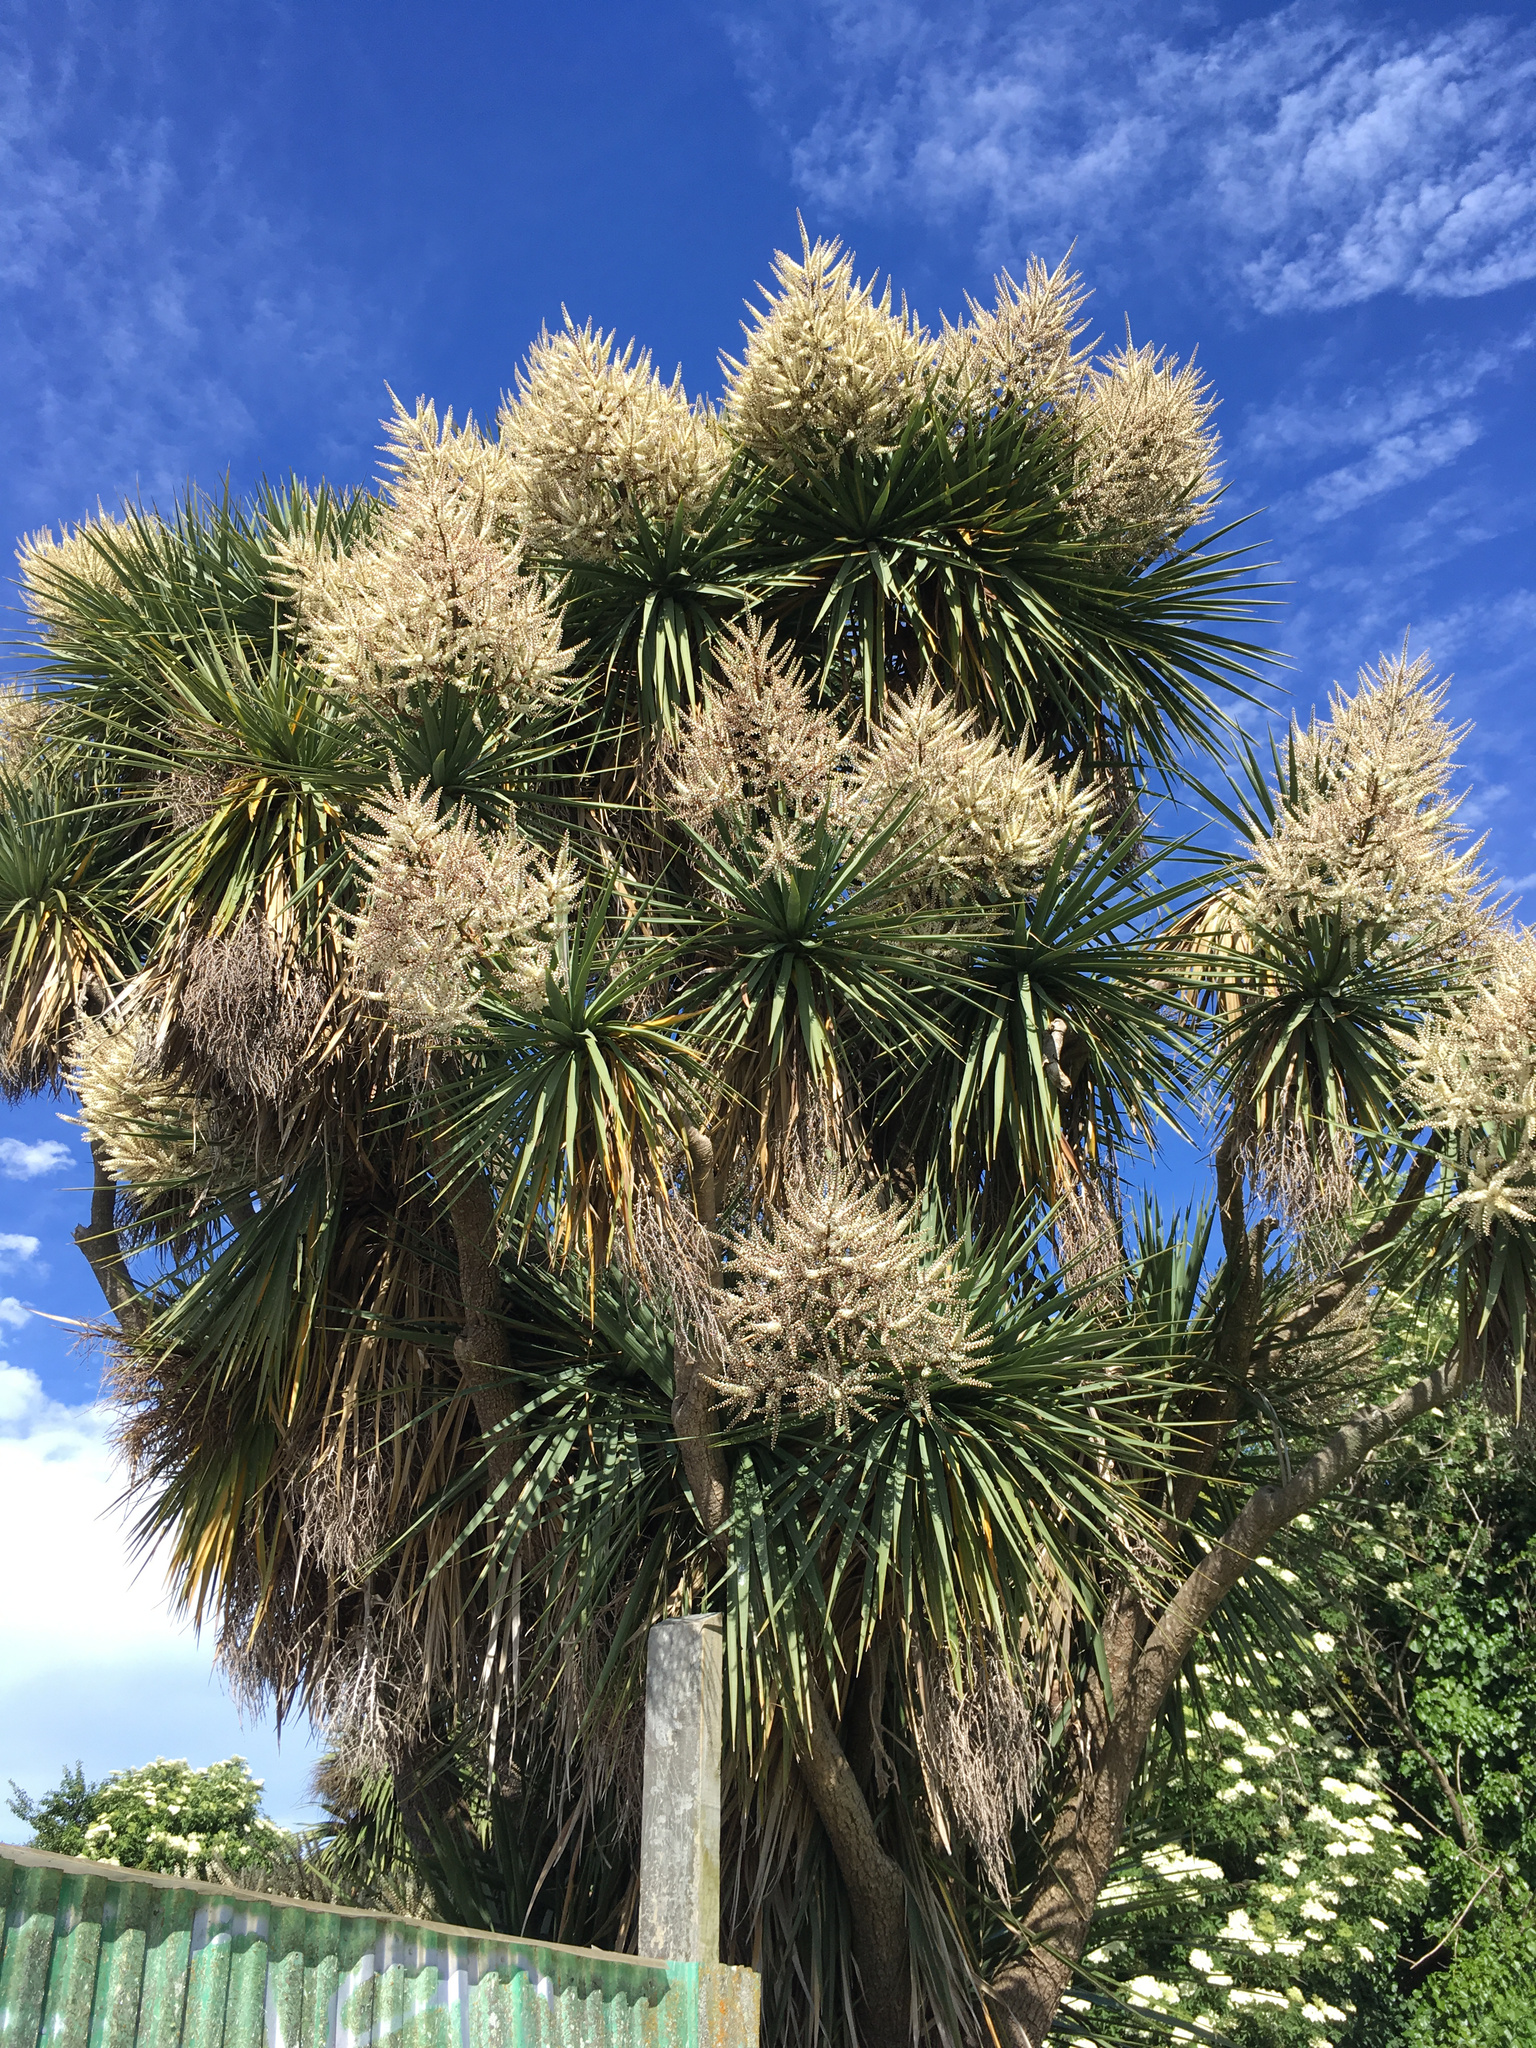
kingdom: Plantae
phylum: Tracheophyta
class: Liliopsida
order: Asparagales
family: Asparagaceae
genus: Cordyline
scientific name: Cordyline australis
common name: Cabbage-palm
